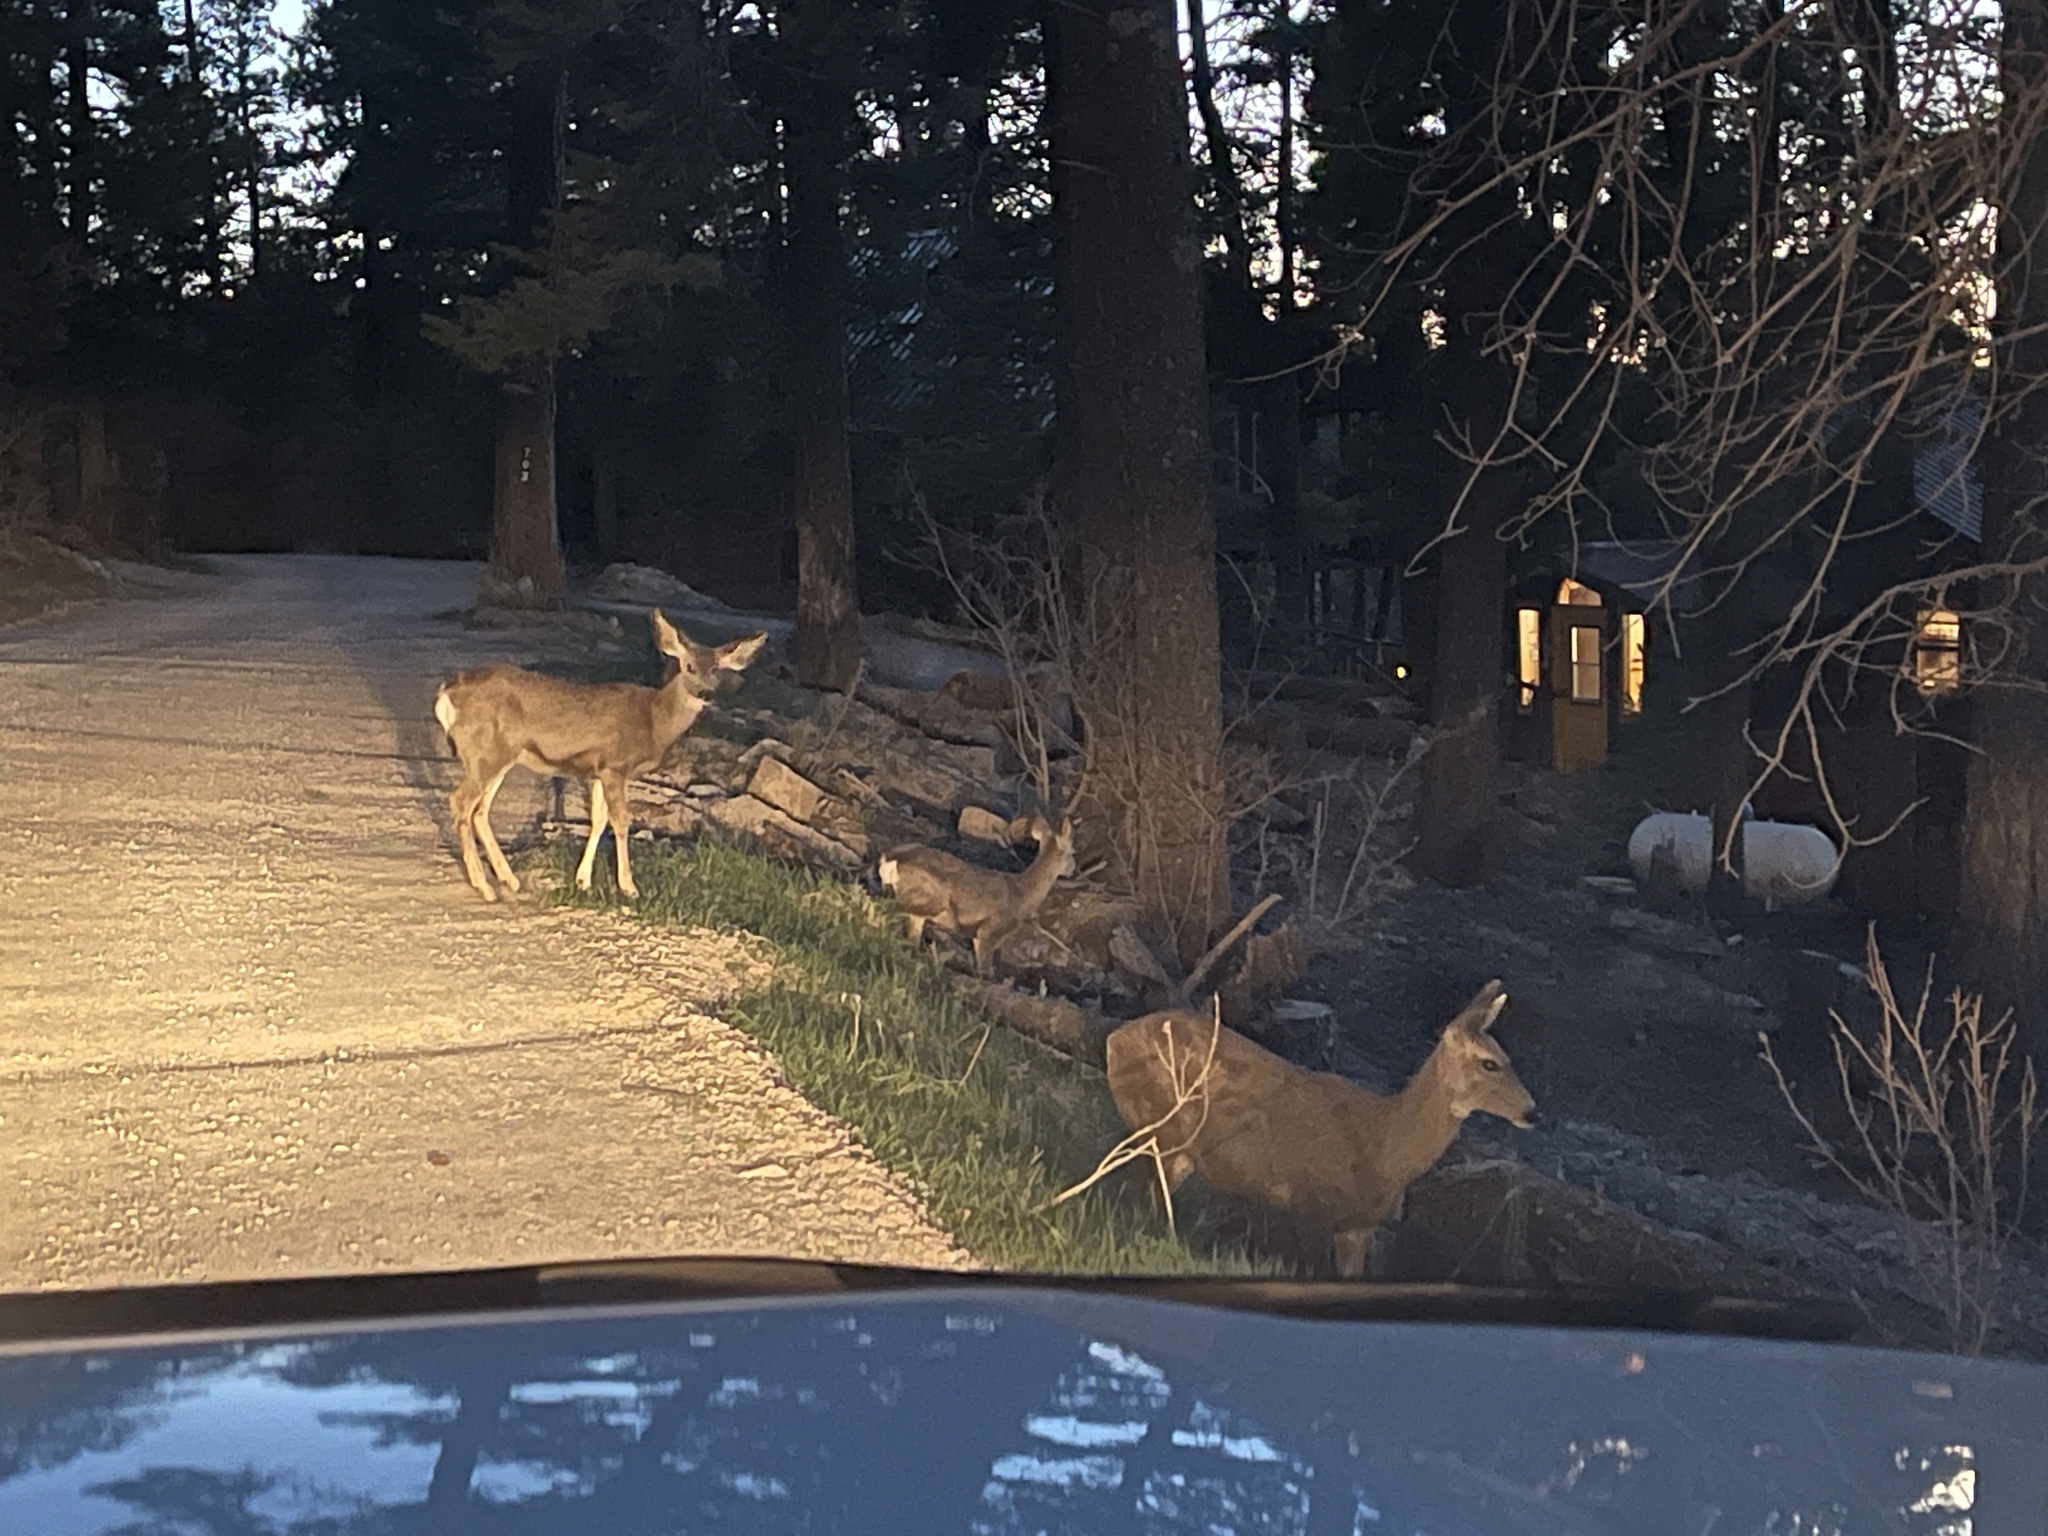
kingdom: Animalia
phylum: Chordata
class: Mammalia
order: Artiodactyla
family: Cervidae
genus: Odocoileus
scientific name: Odocoileus hemionus
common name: Mule deer
